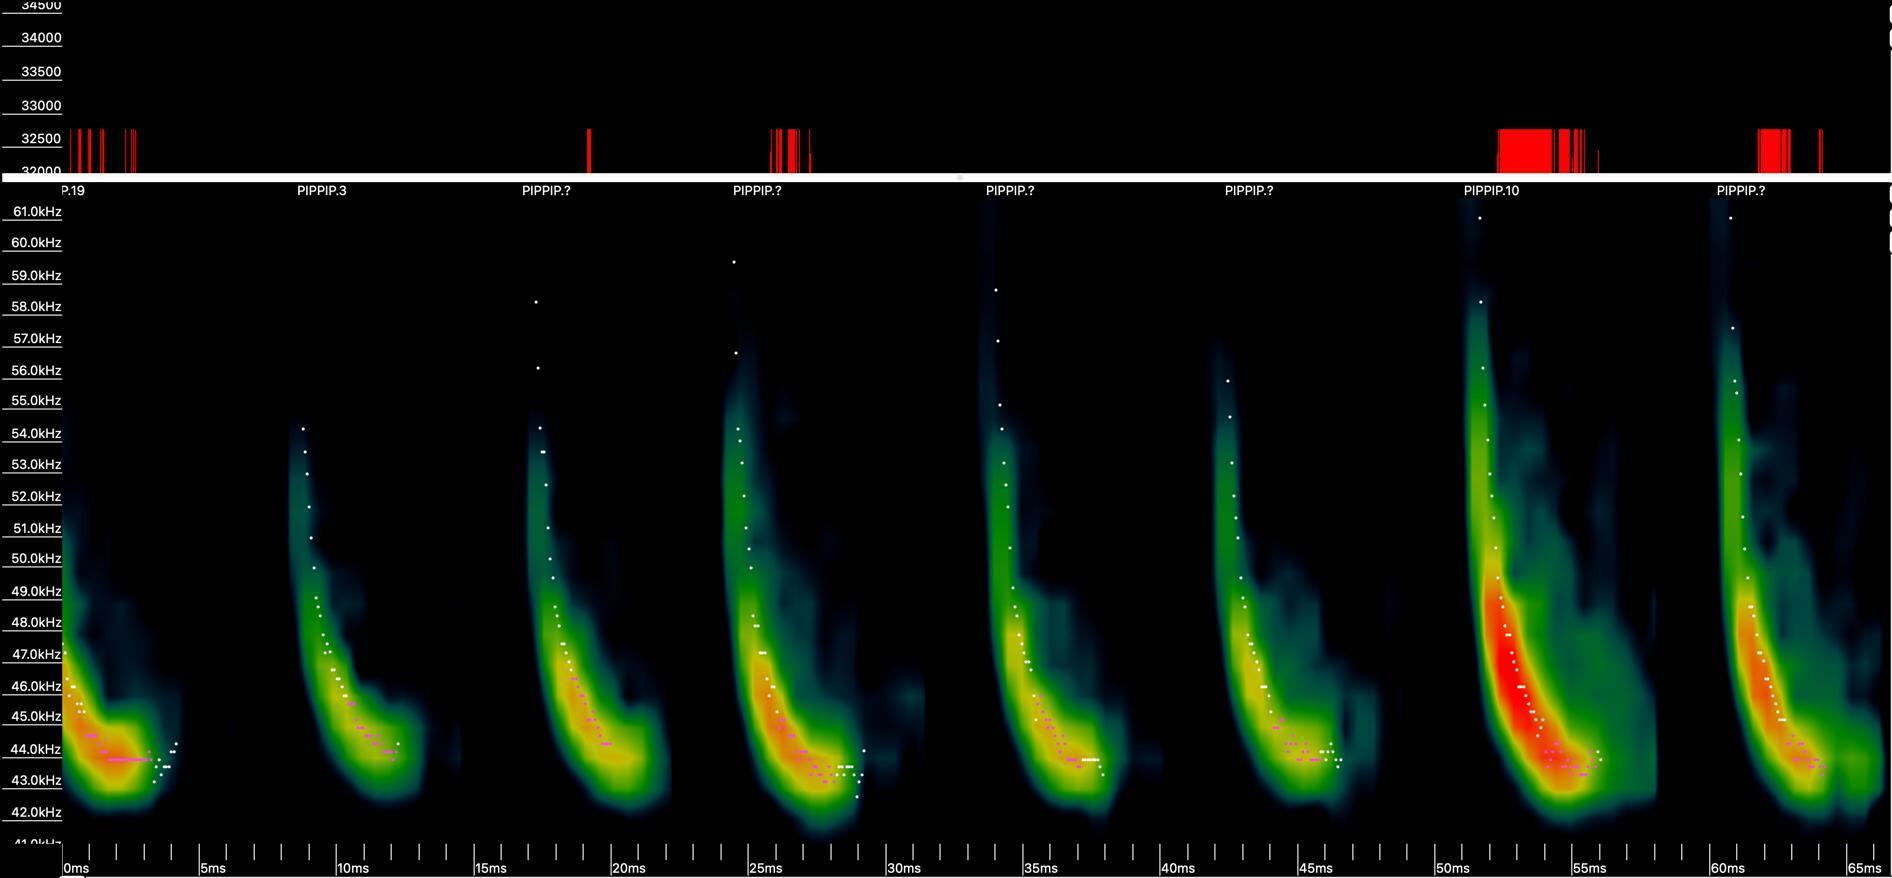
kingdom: Animalia
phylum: Chordata
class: Mammalia
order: Chiroptera
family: Vespertilionidae
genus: Pipistrellus
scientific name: Pipistrellus pipistrellus
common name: Common pipistrelle
